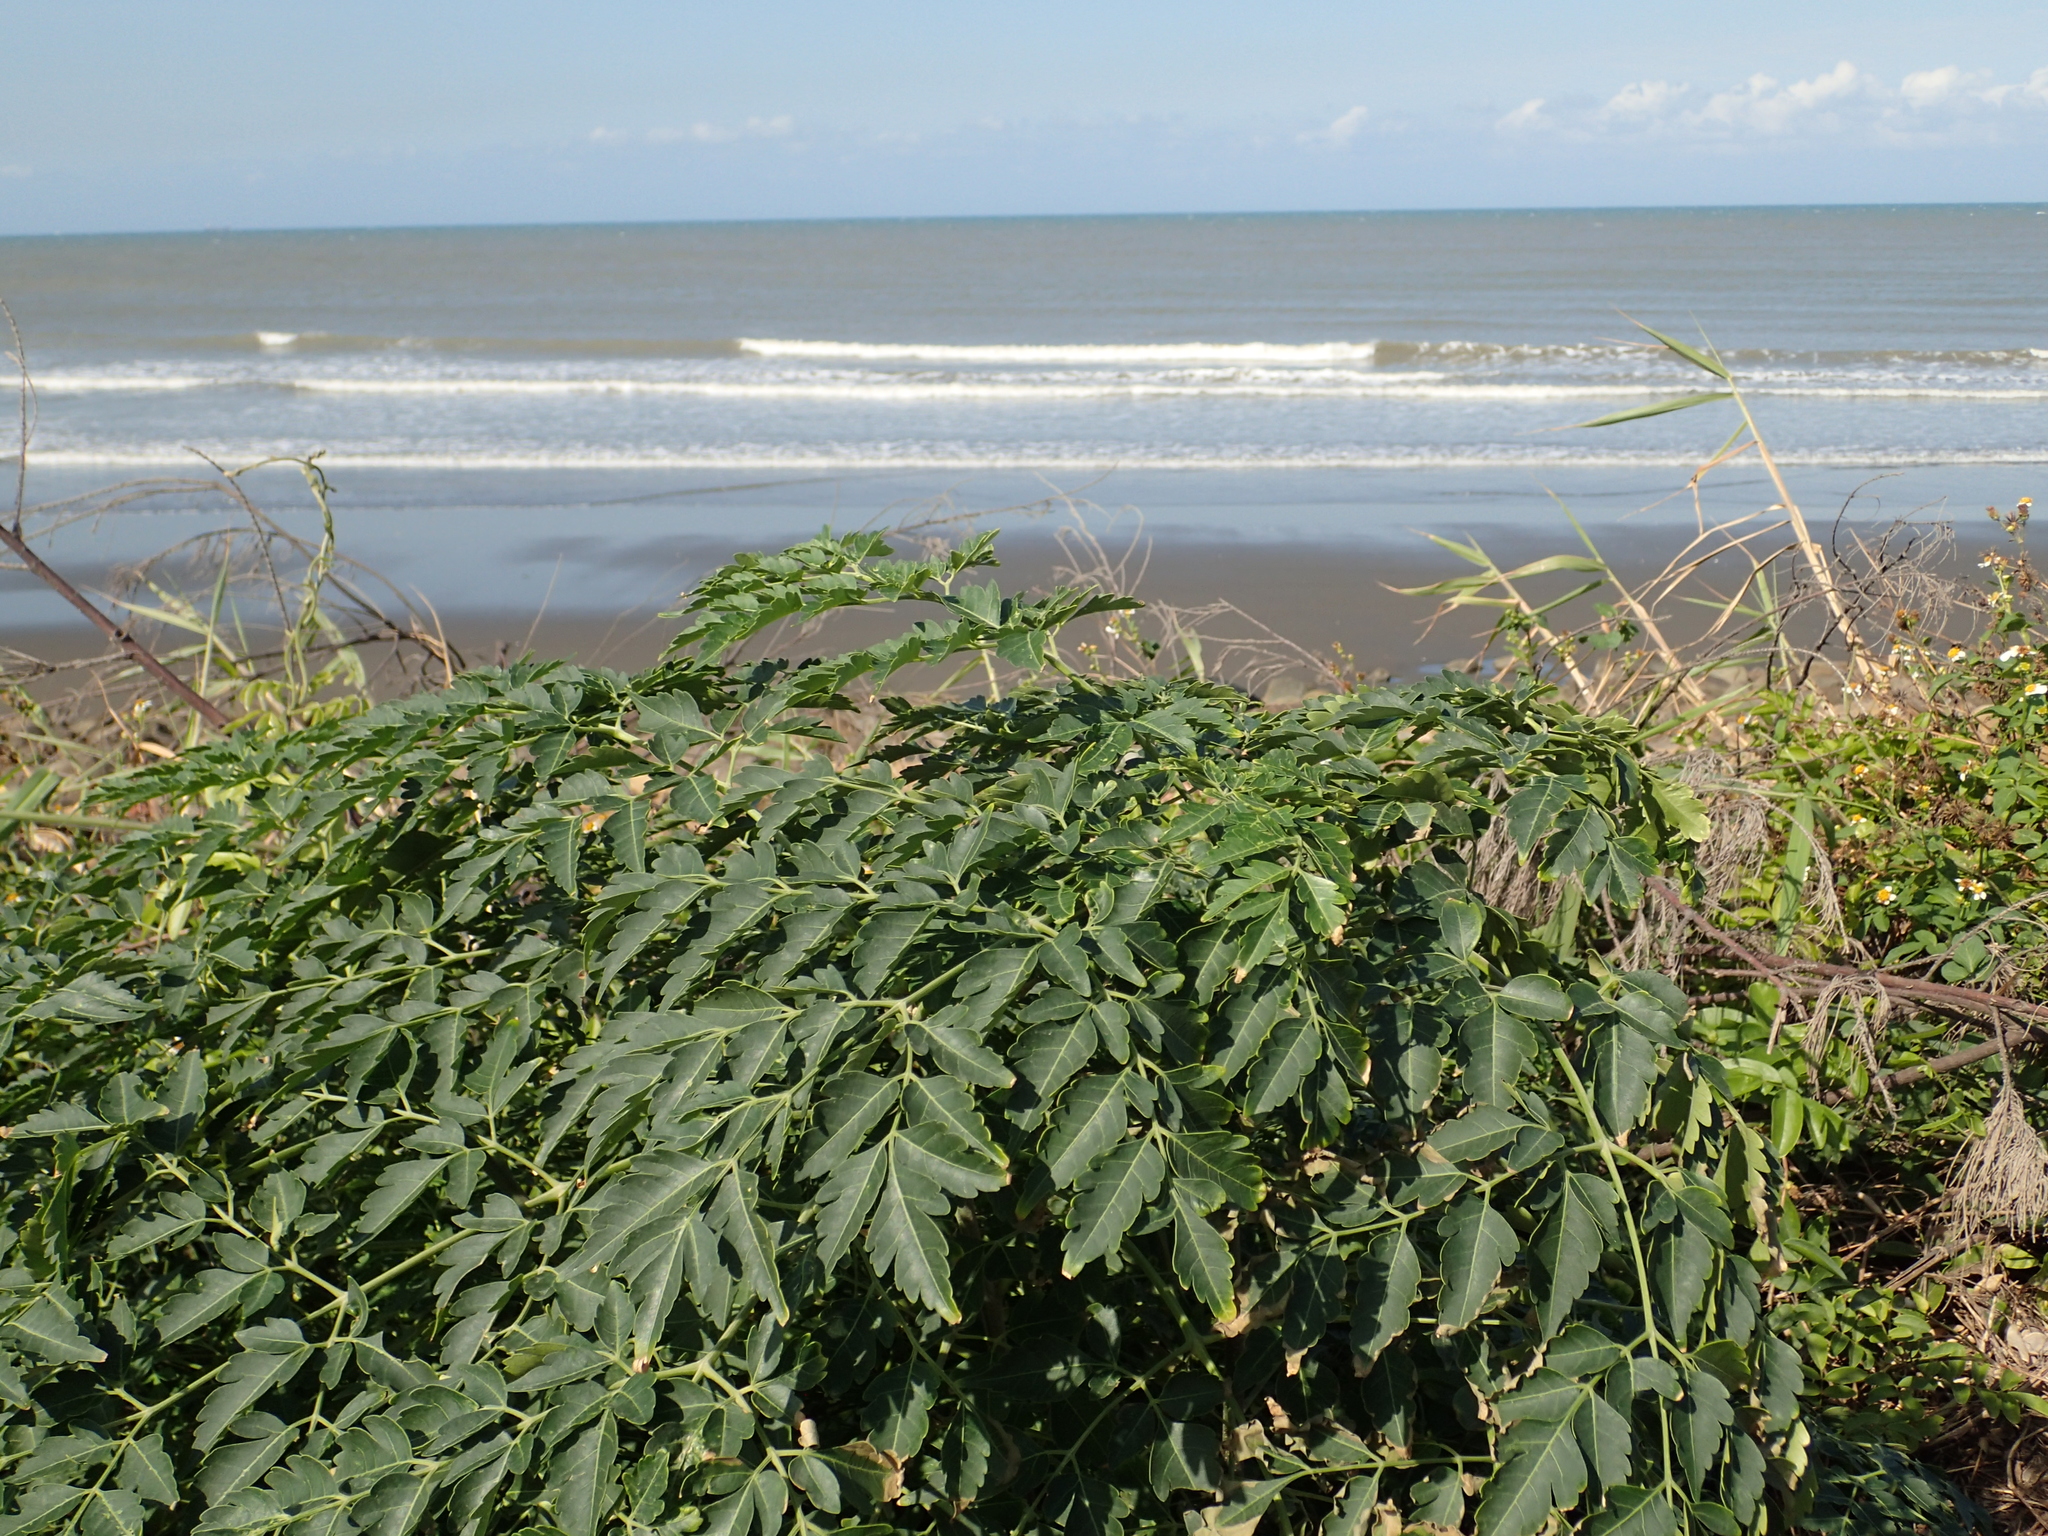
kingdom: Plantae
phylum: Tracheophyta
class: Magnoliopsida
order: Sapindales
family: Meliaceae
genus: Melia
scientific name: Melia azedarach
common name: Chinaberrytree
